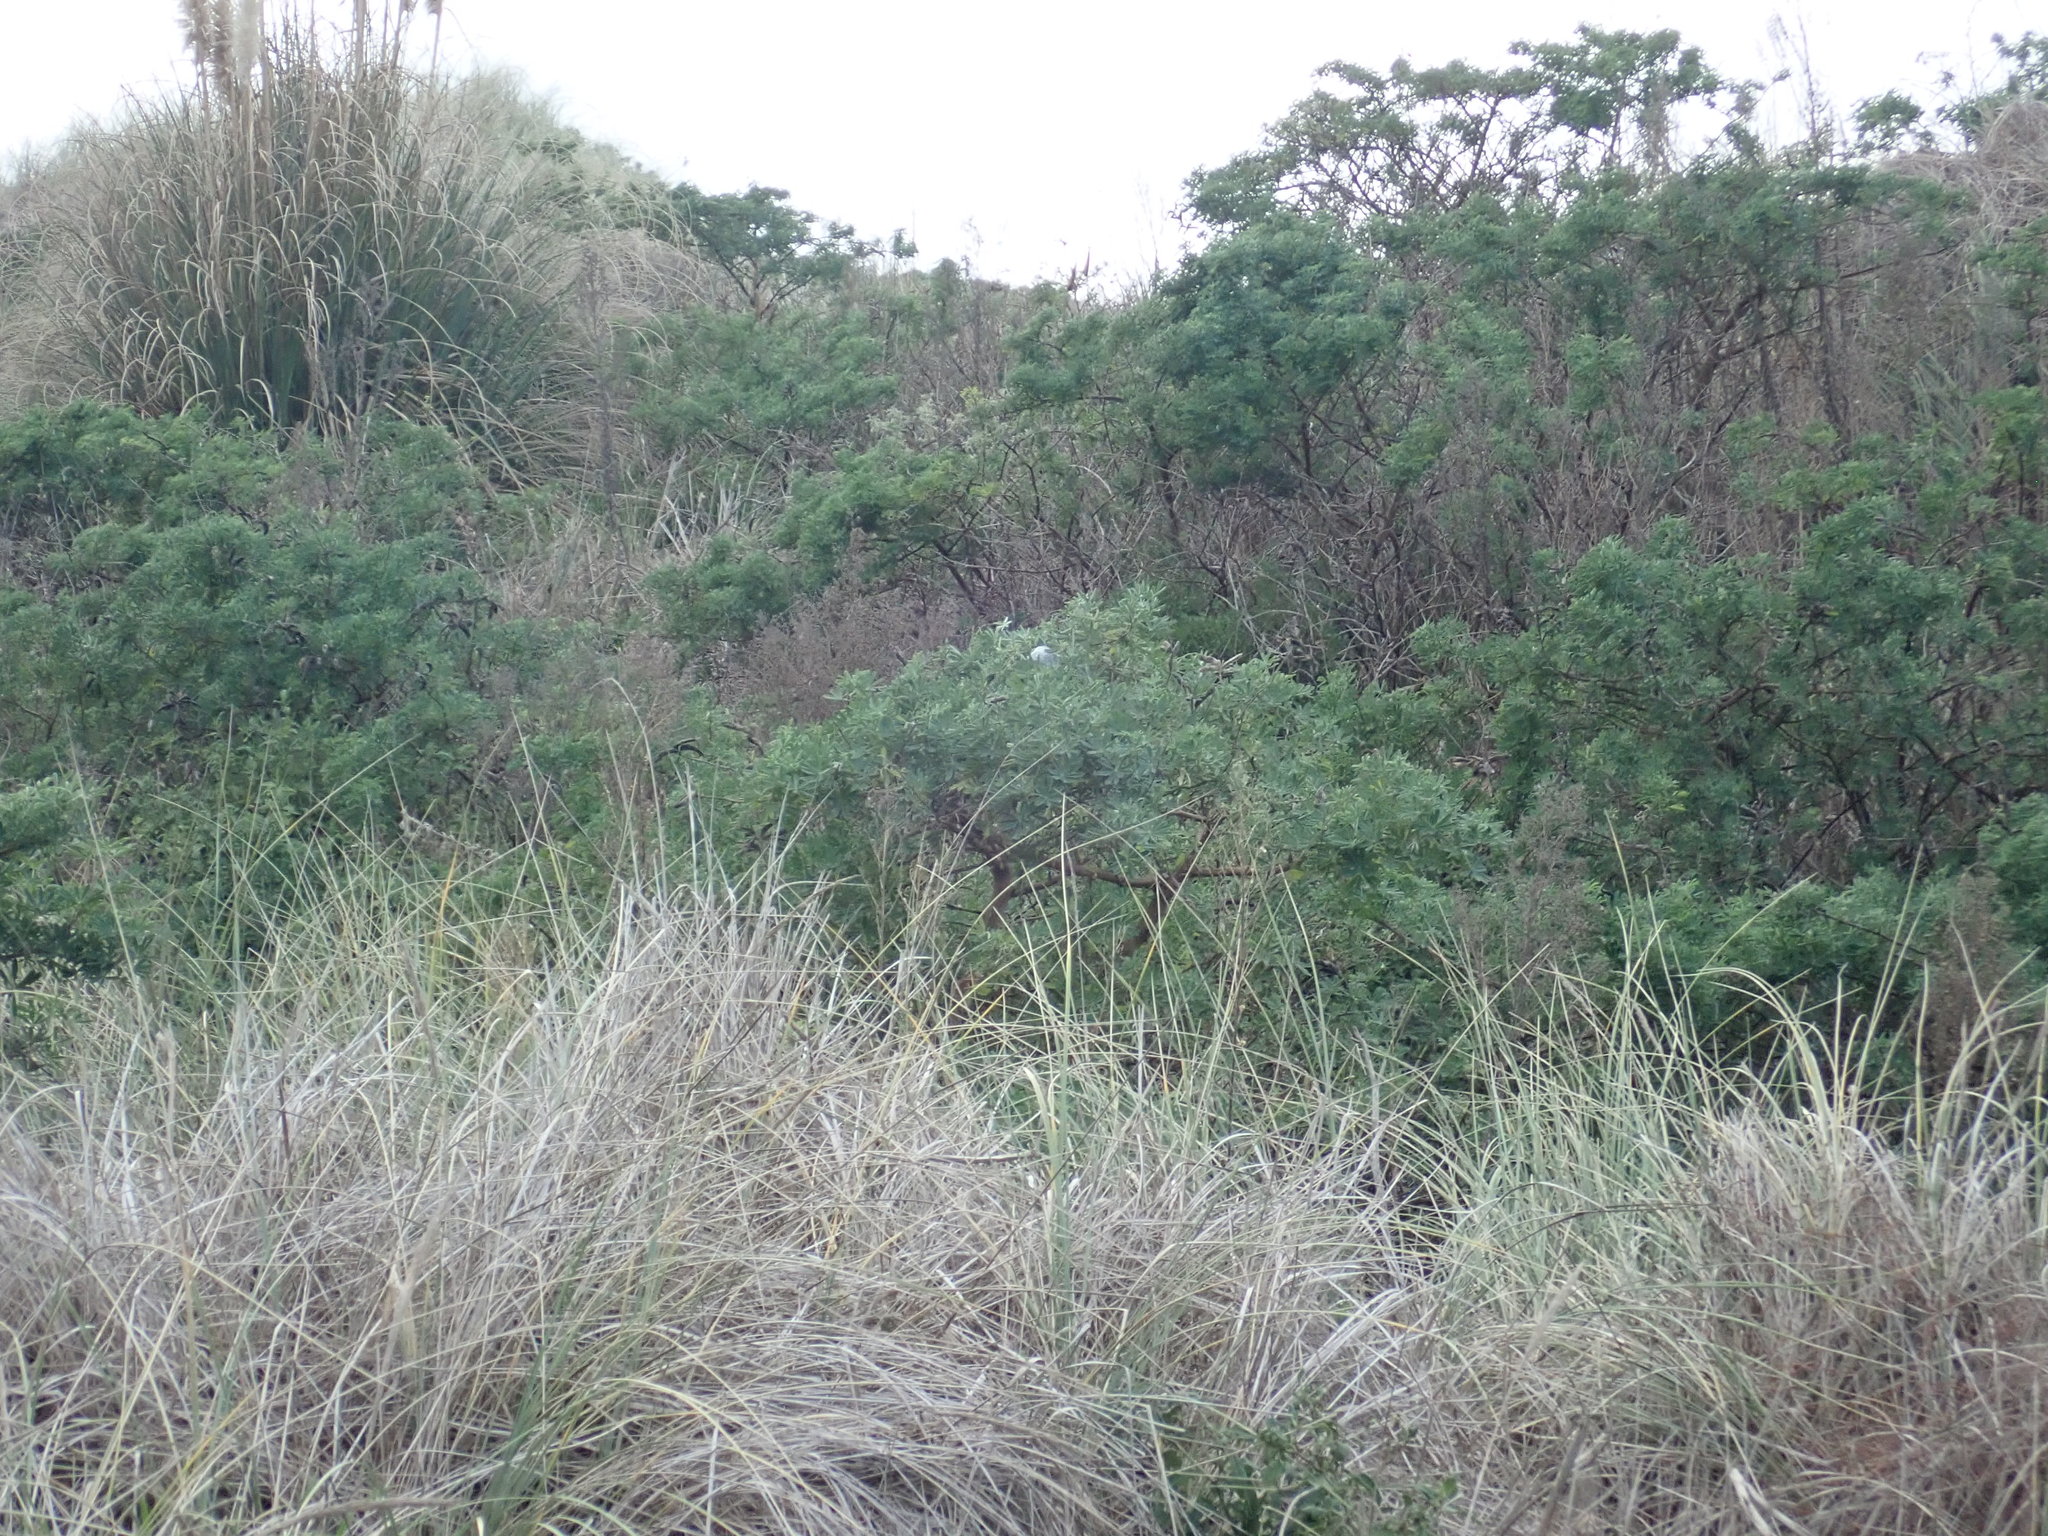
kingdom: Animalia
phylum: Arthropoda
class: Arachnida
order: Araneae
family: Pisauridae
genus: Dolomedes
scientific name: Dolomedes minor
